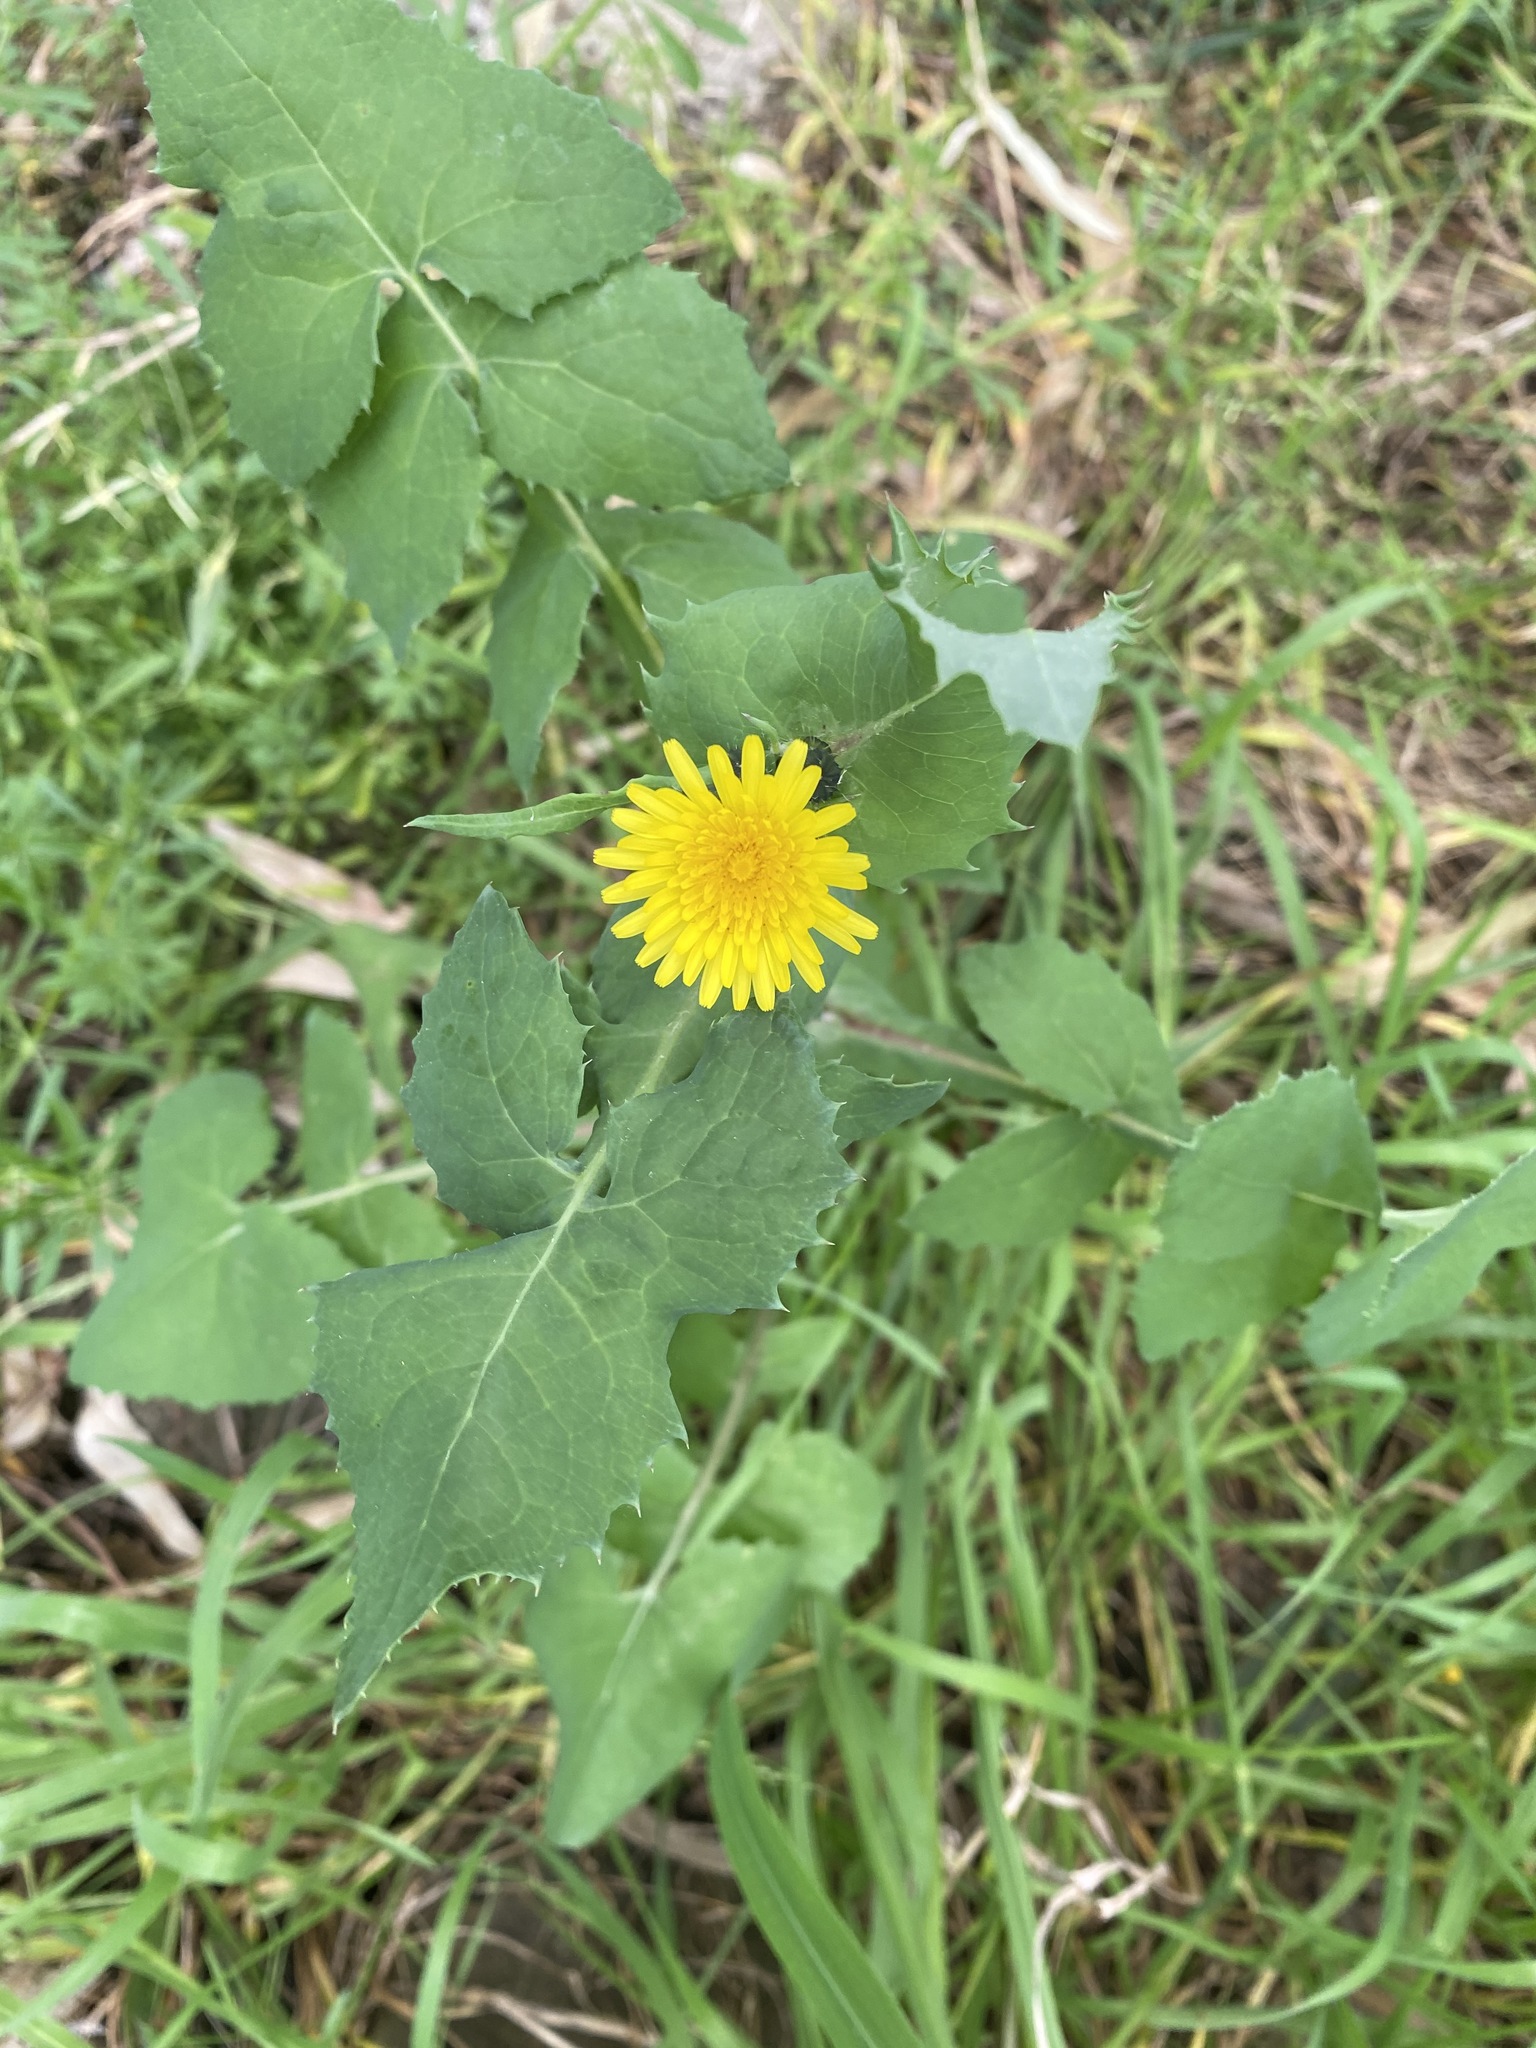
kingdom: Plantae
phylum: Tracheophyta
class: Magnoliopsida
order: Asterales
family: Asteraceae
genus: Sonchus
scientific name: Sonchus oleraceus
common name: Common sowthistle
